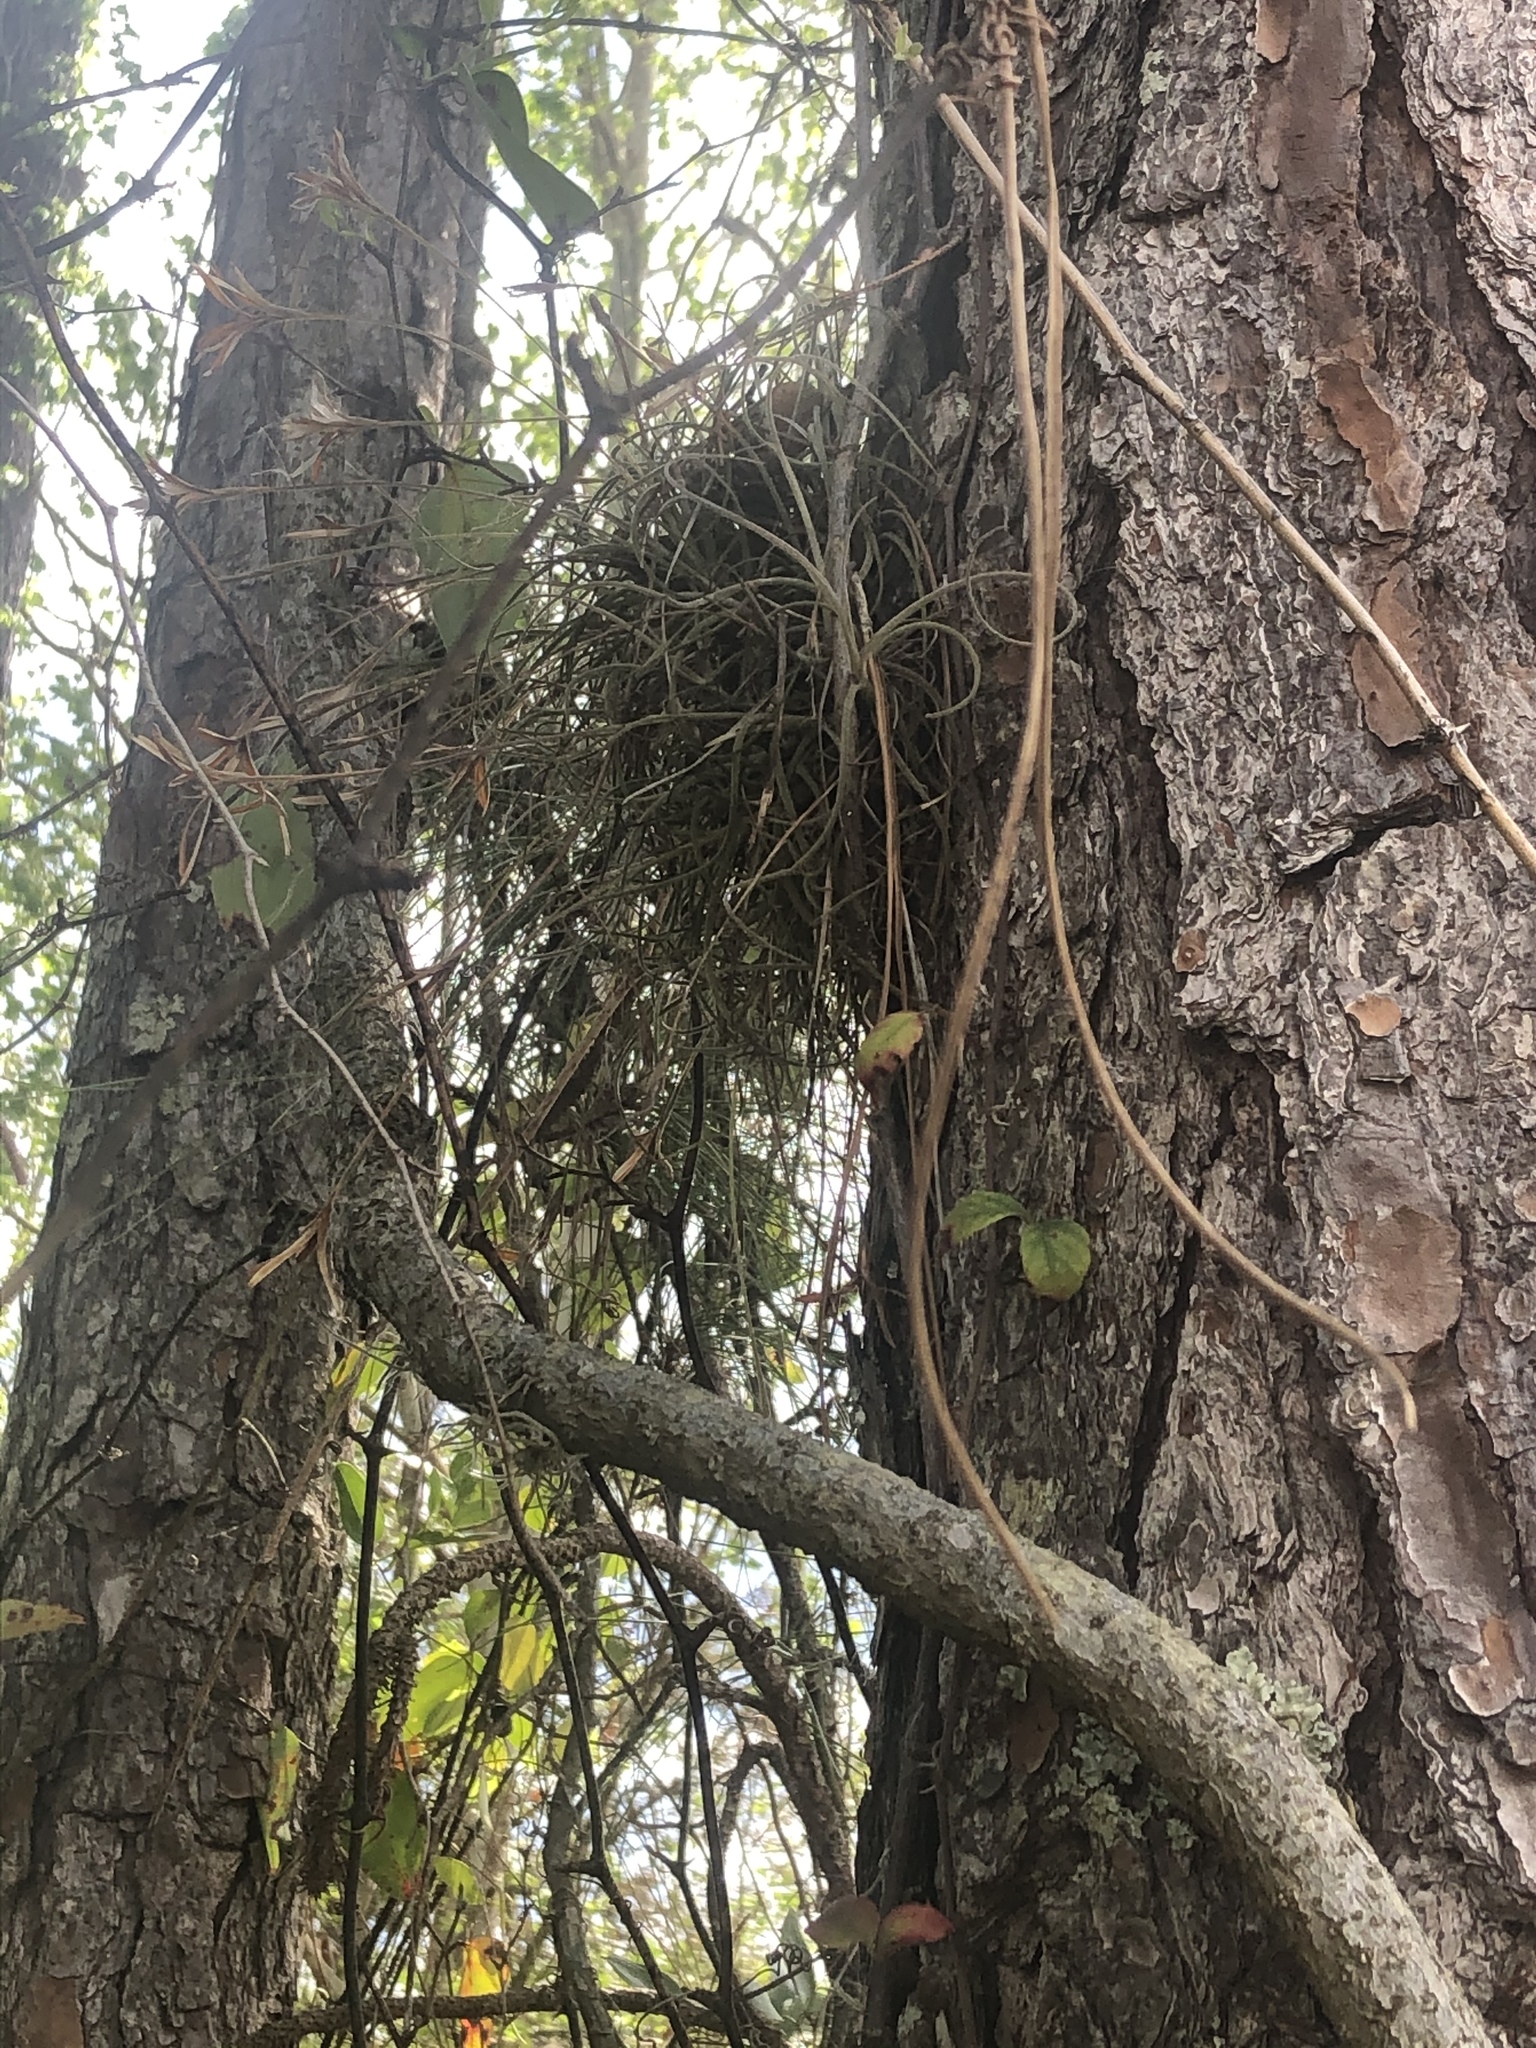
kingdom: Plantae
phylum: Tracheophyta
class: Liliopsida
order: Poales
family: Bromeliaceae
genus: Tillandsia
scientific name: Tillandsia recurvata
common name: Small ballmoss
